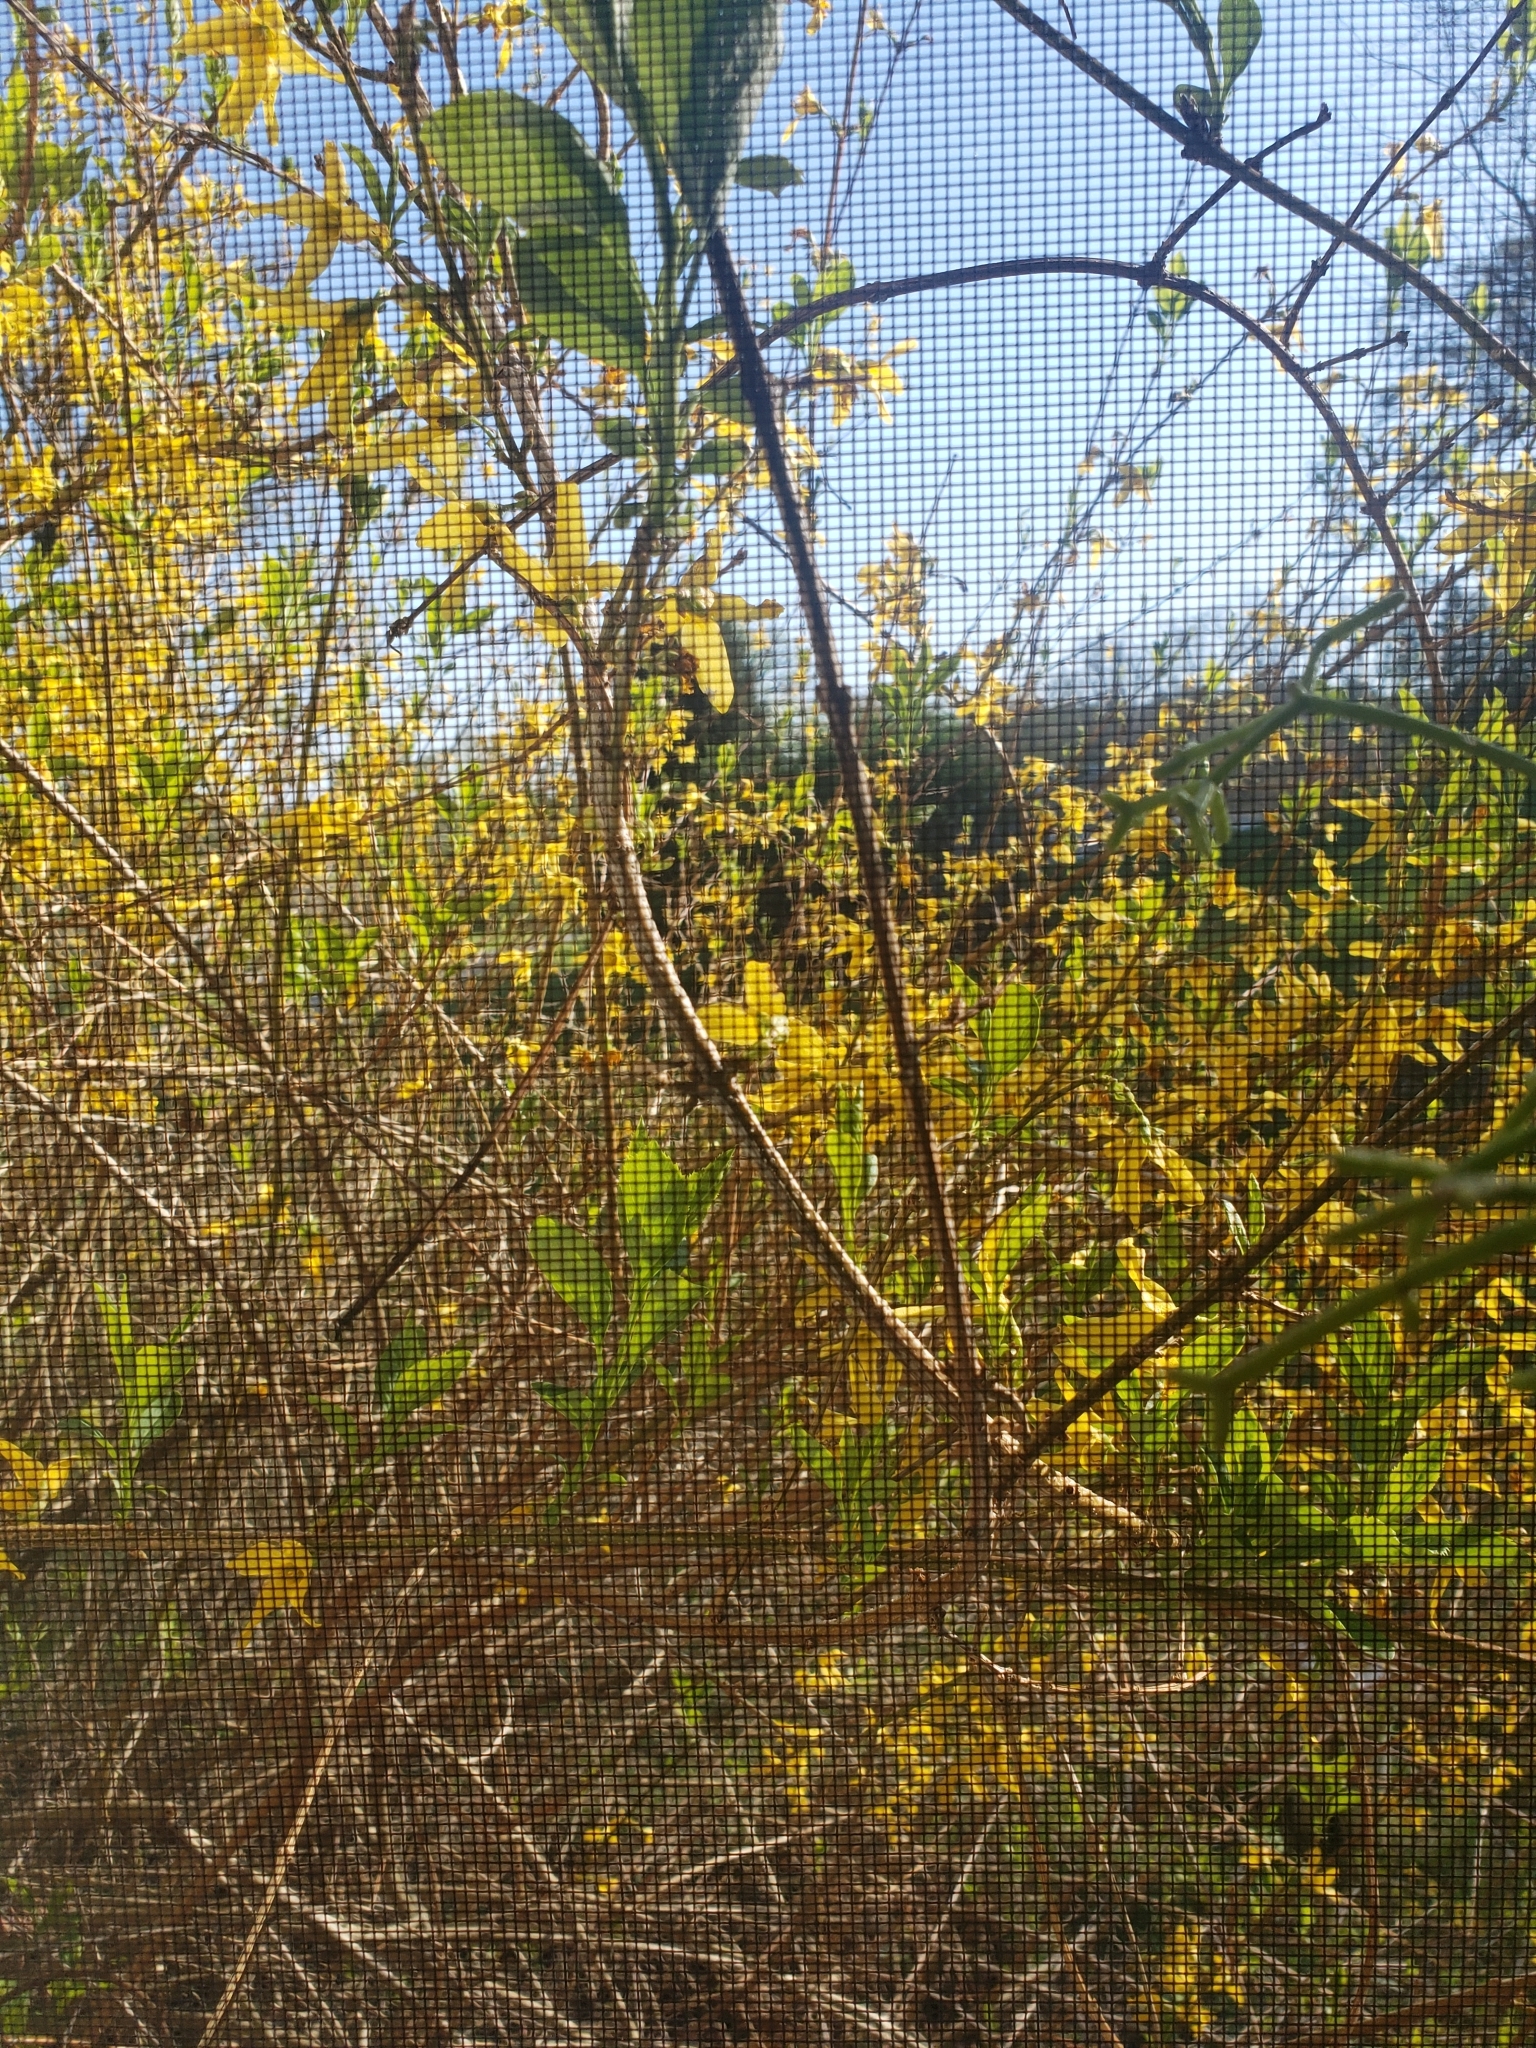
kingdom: Animalia
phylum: Chordata
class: Aves
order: Passeriformes
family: Troglodytidae
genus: Troglodytes
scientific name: Troglodytes aedon
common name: House wren
